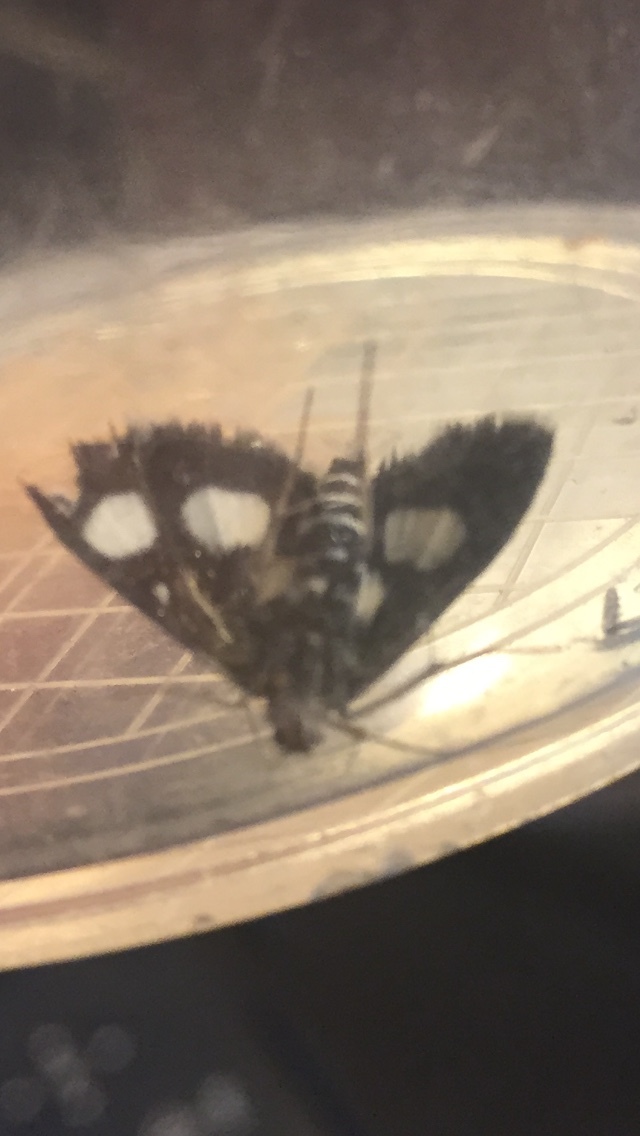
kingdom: Animalia
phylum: Arthropoda
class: Insecta
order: Lepidoptera
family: Crambidae
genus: Anania
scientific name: Anania funebris
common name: White-spotted sable moth
